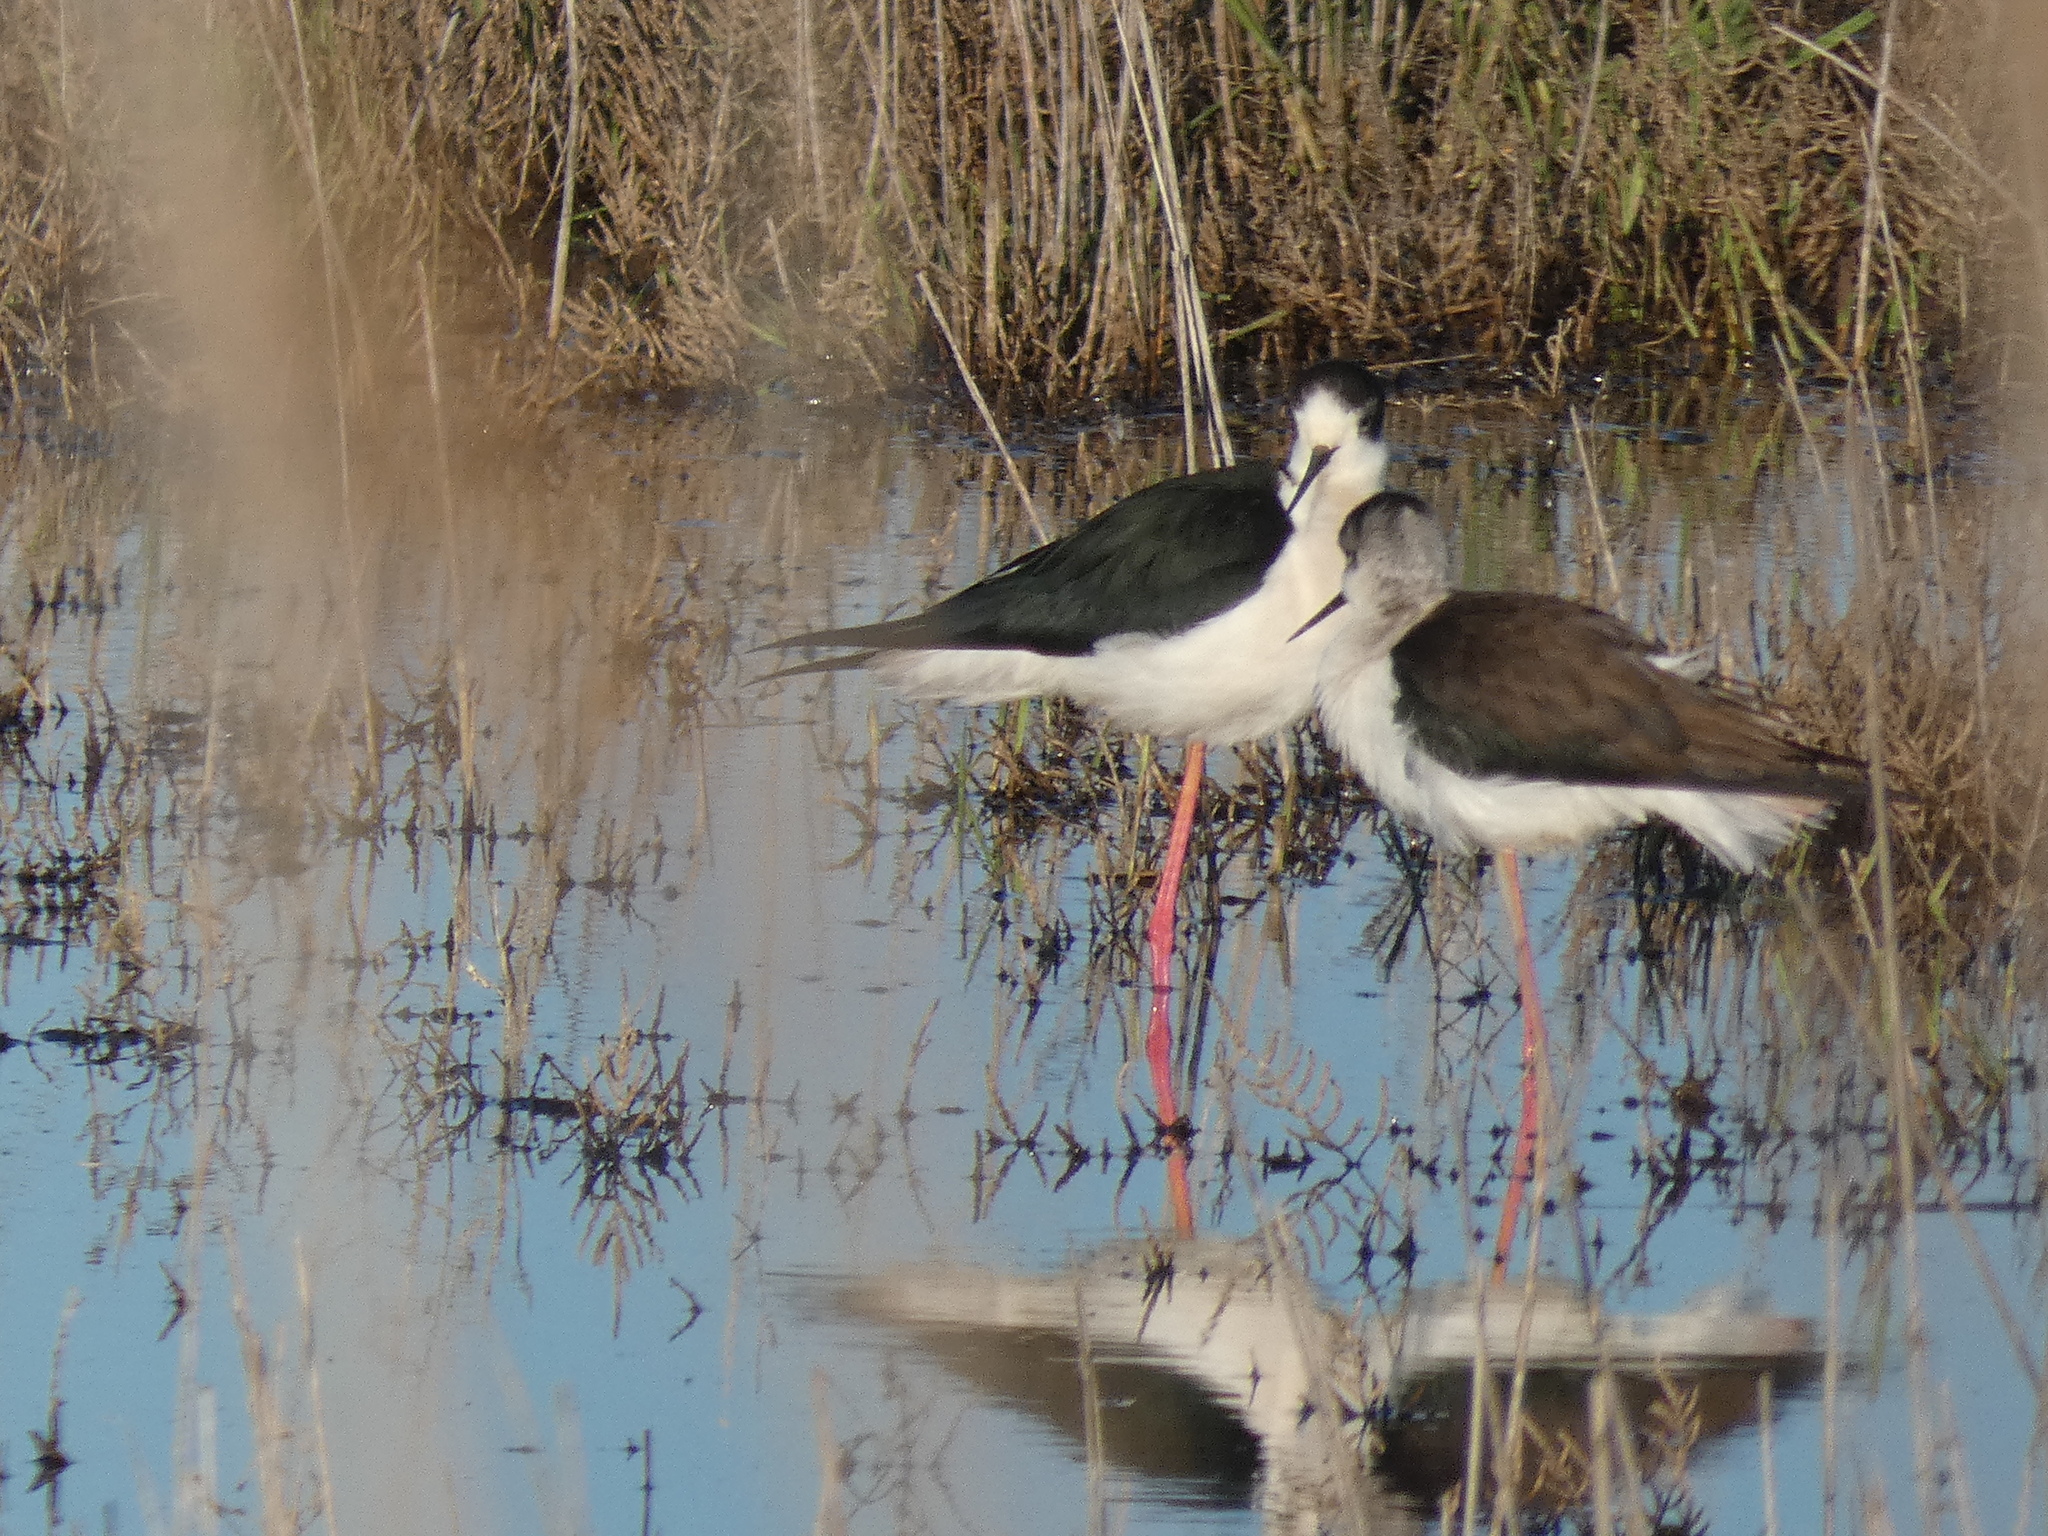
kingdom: Animalia
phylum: Chordata
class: Aves
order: Charadriiformes
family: Recurvirostridae
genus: Himantopus
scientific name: Himantopus himantopus
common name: Black-winged stilt
